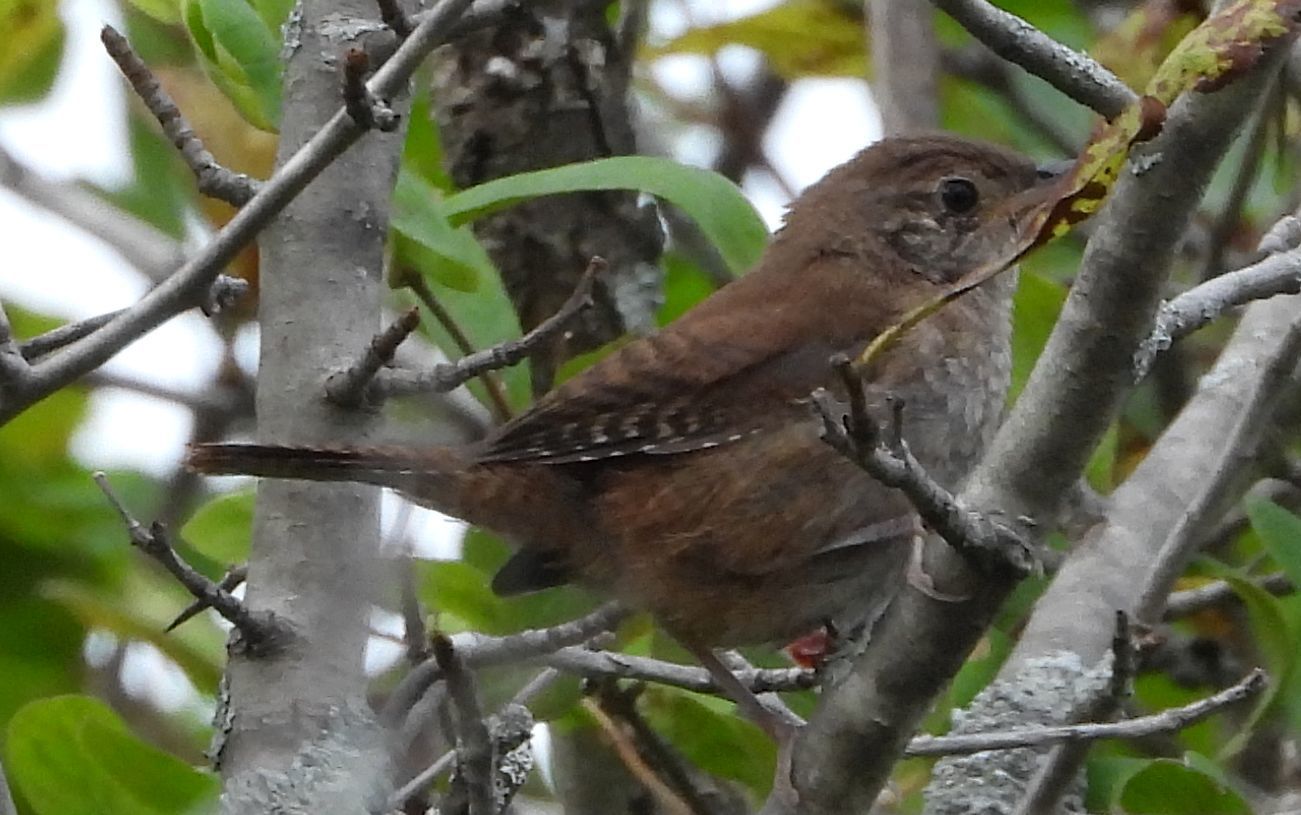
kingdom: Animalia
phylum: Chordata
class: Aves
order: Passeriformes
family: Troglodytidae
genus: Troglodytes
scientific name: Troglodytes aedon
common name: House wren
